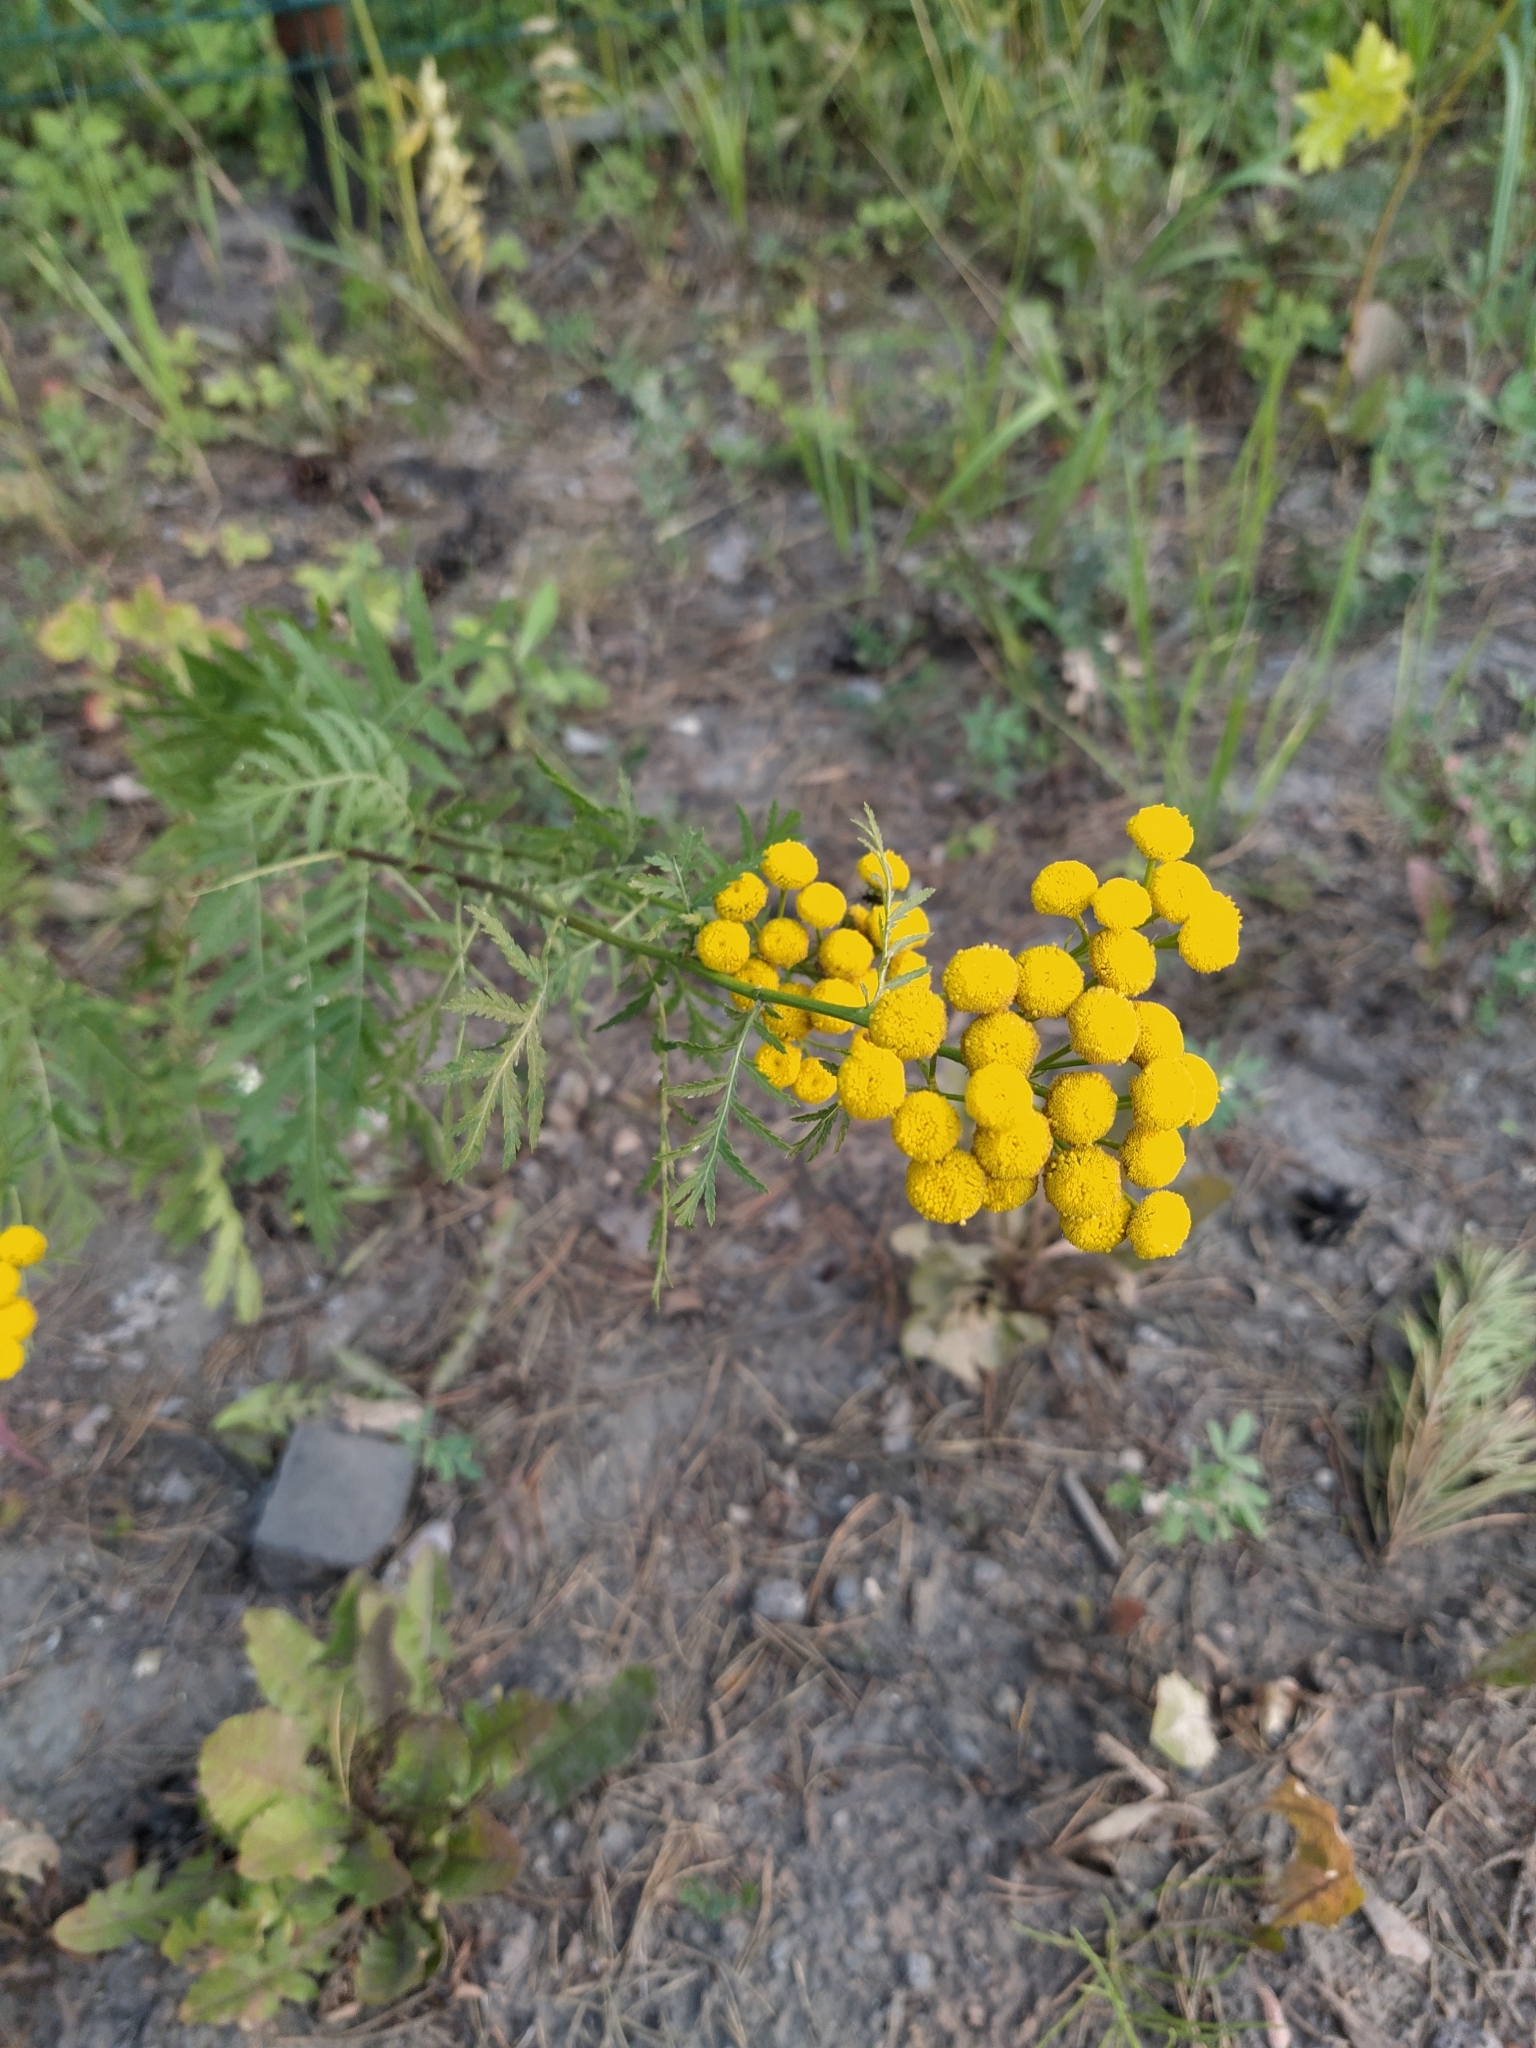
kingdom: Plantae
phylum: Tracheophyta
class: Magnoliopsida
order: Asterales
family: Asteraceae
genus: Tanacetum
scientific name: Tanacetum vulgare
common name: Common tansy
